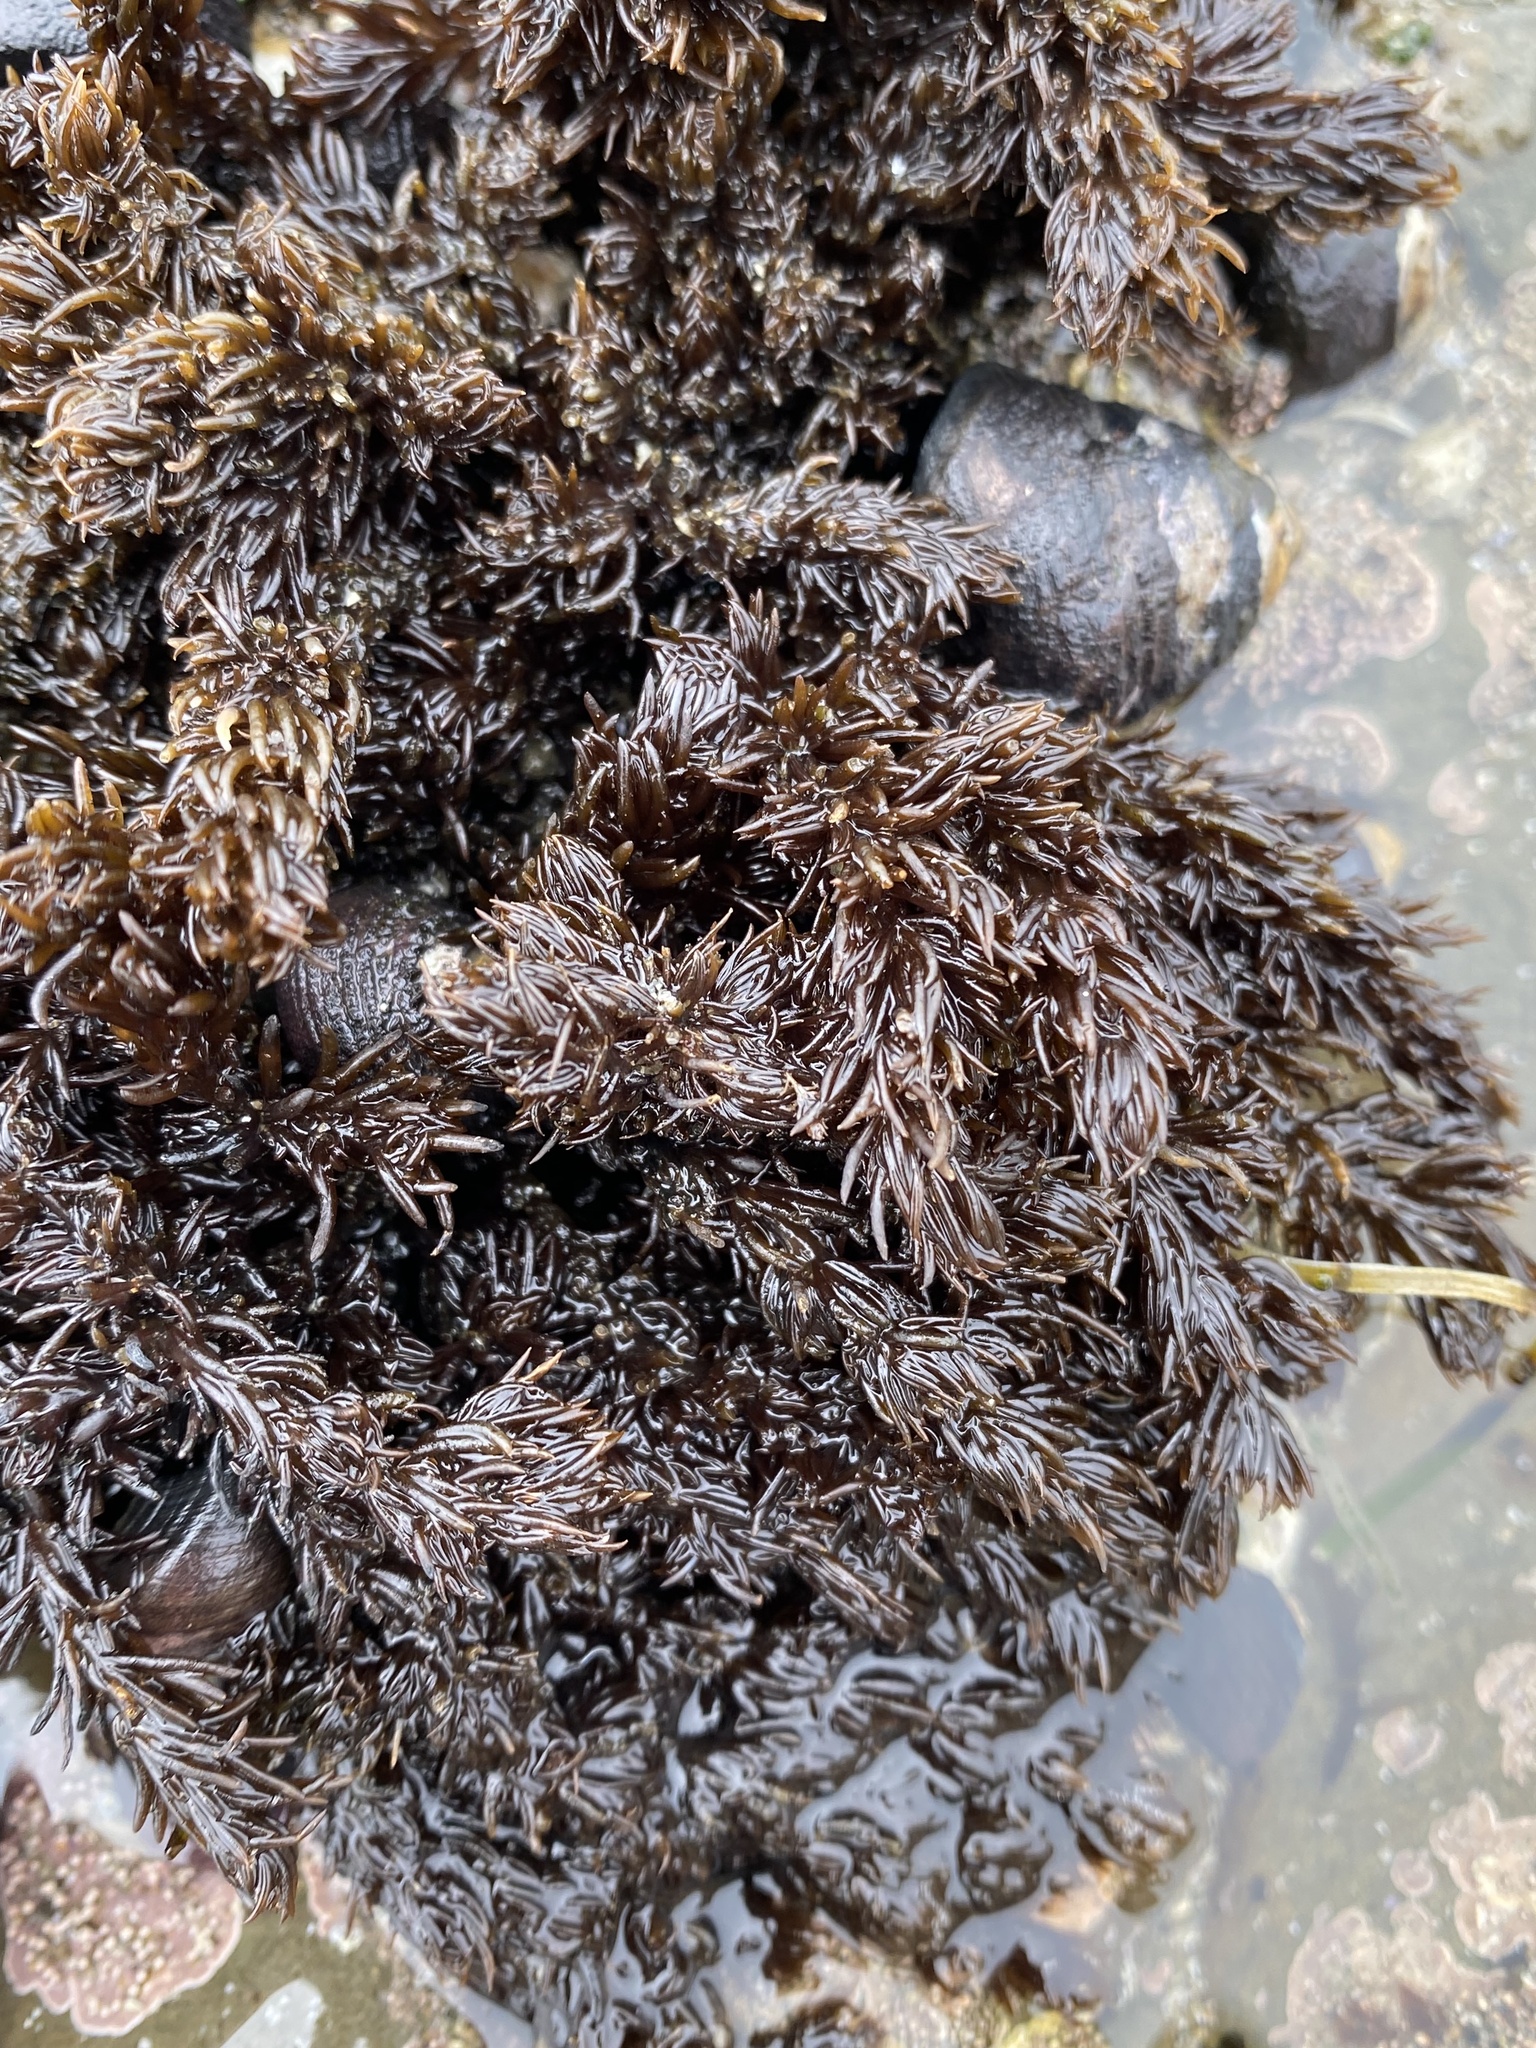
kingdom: Plantae
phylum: Rhodophyta
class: Florideophyceae
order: Ceramiales
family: Rhodomelaceae
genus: Neorhodomela
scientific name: Neorhodomela larix
